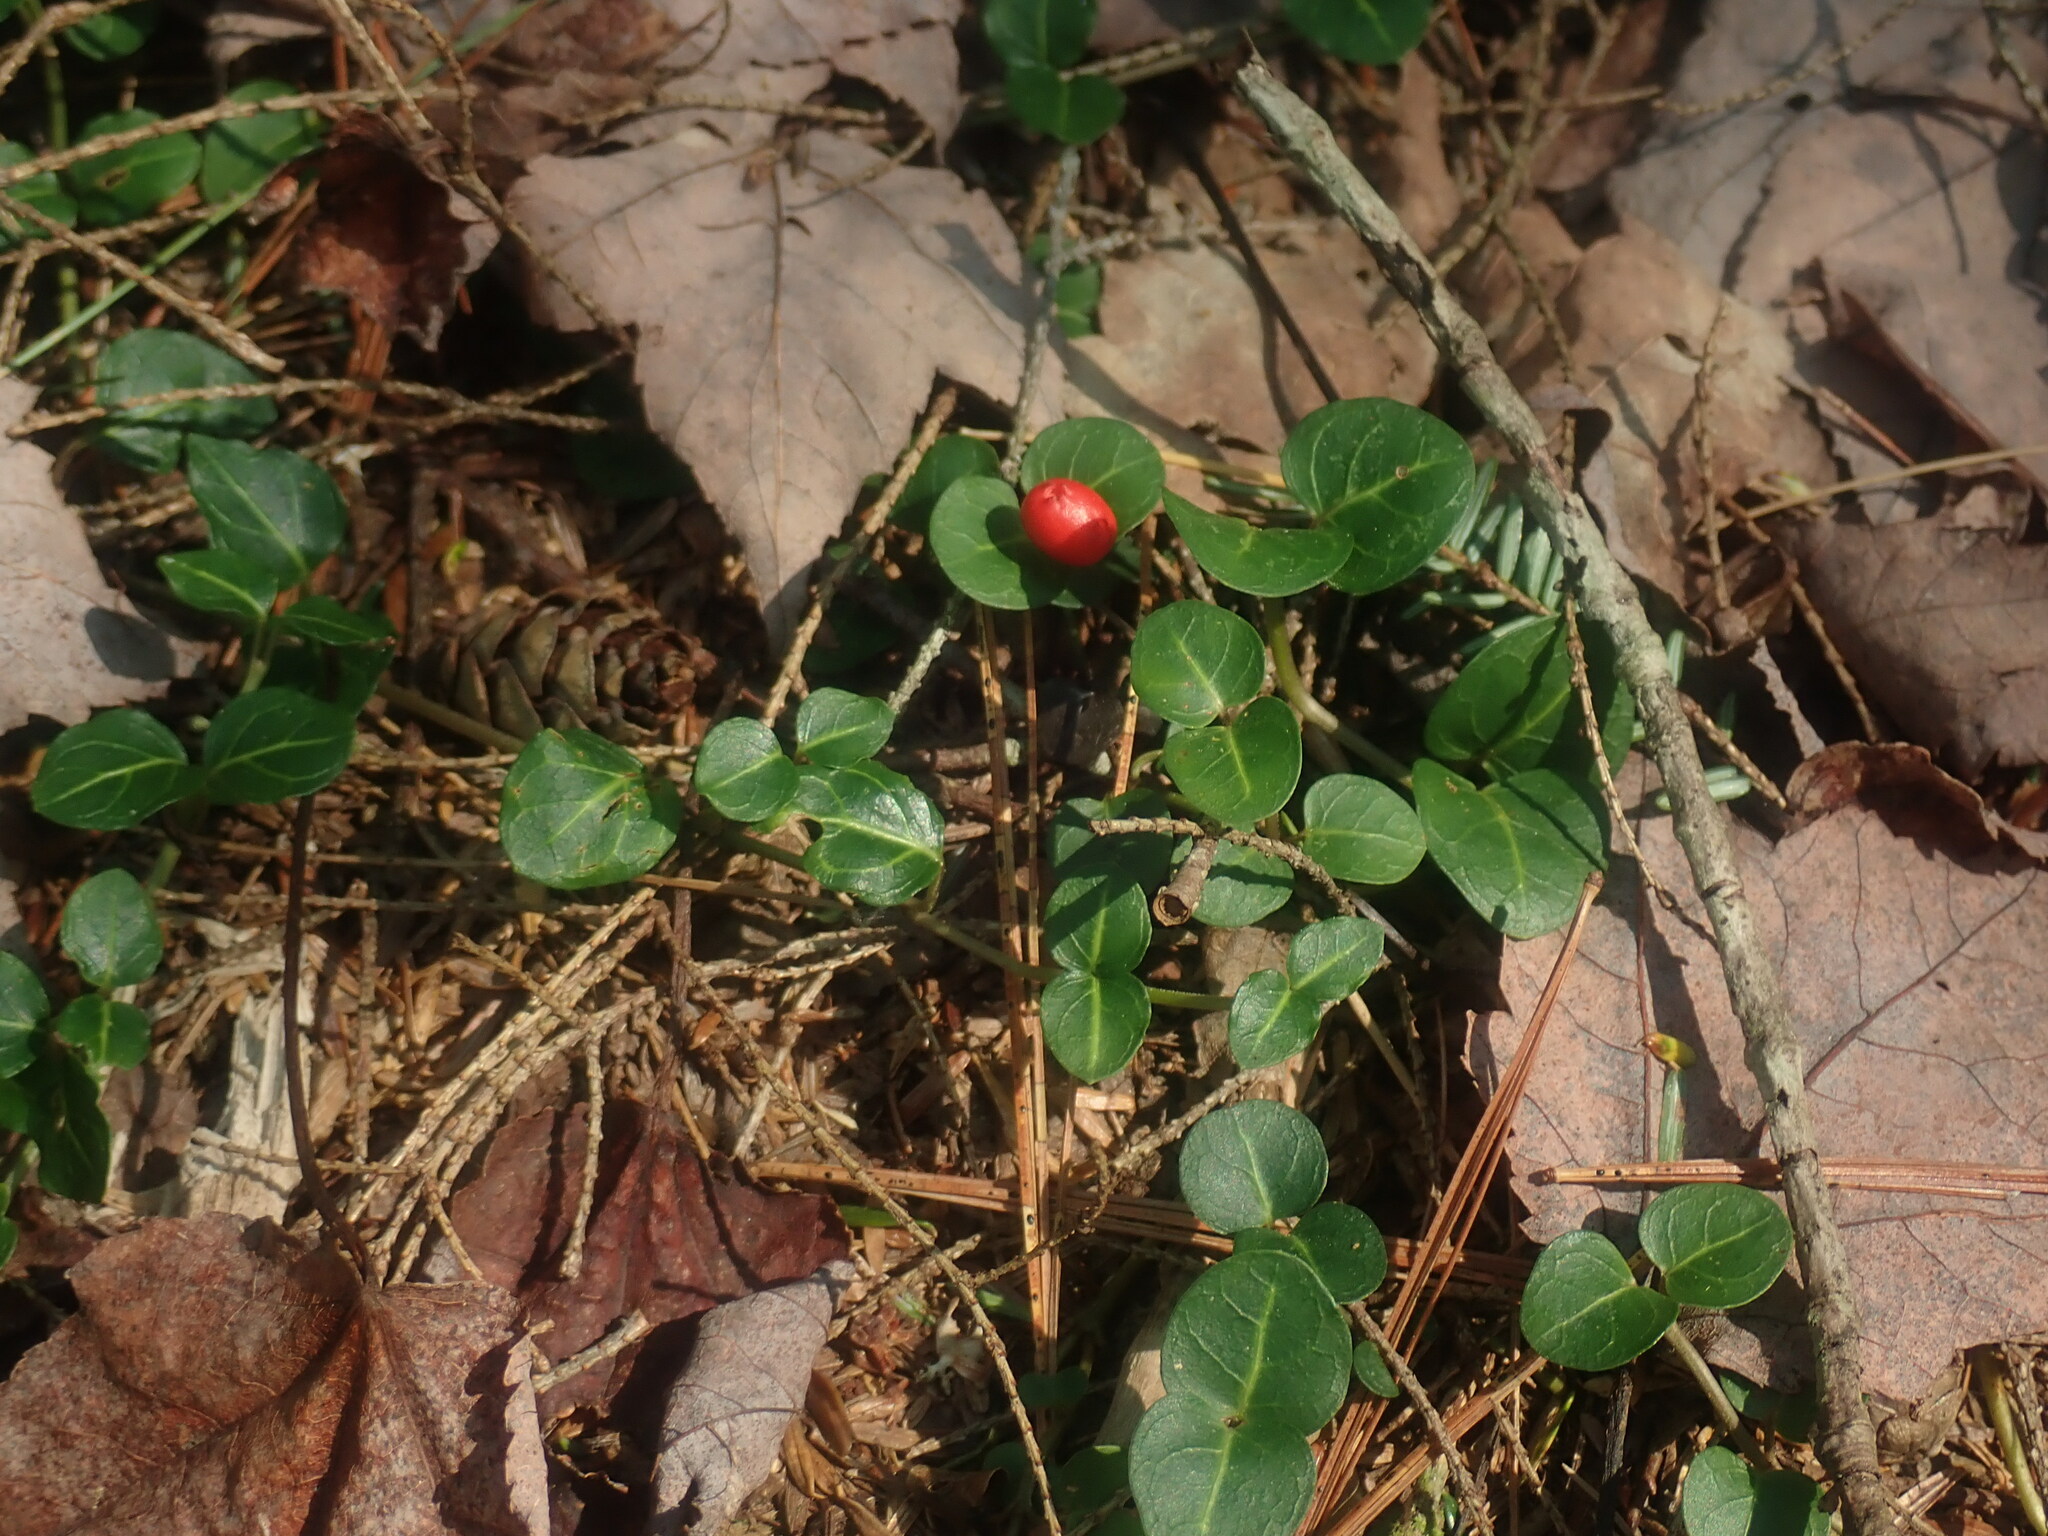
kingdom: Plantae
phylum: Tracheophyta
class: Magnoliopsida
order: Gentianales
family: Rubiaceae
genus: Mitchella
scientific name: Mitchella repens
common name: Partridge-berry
